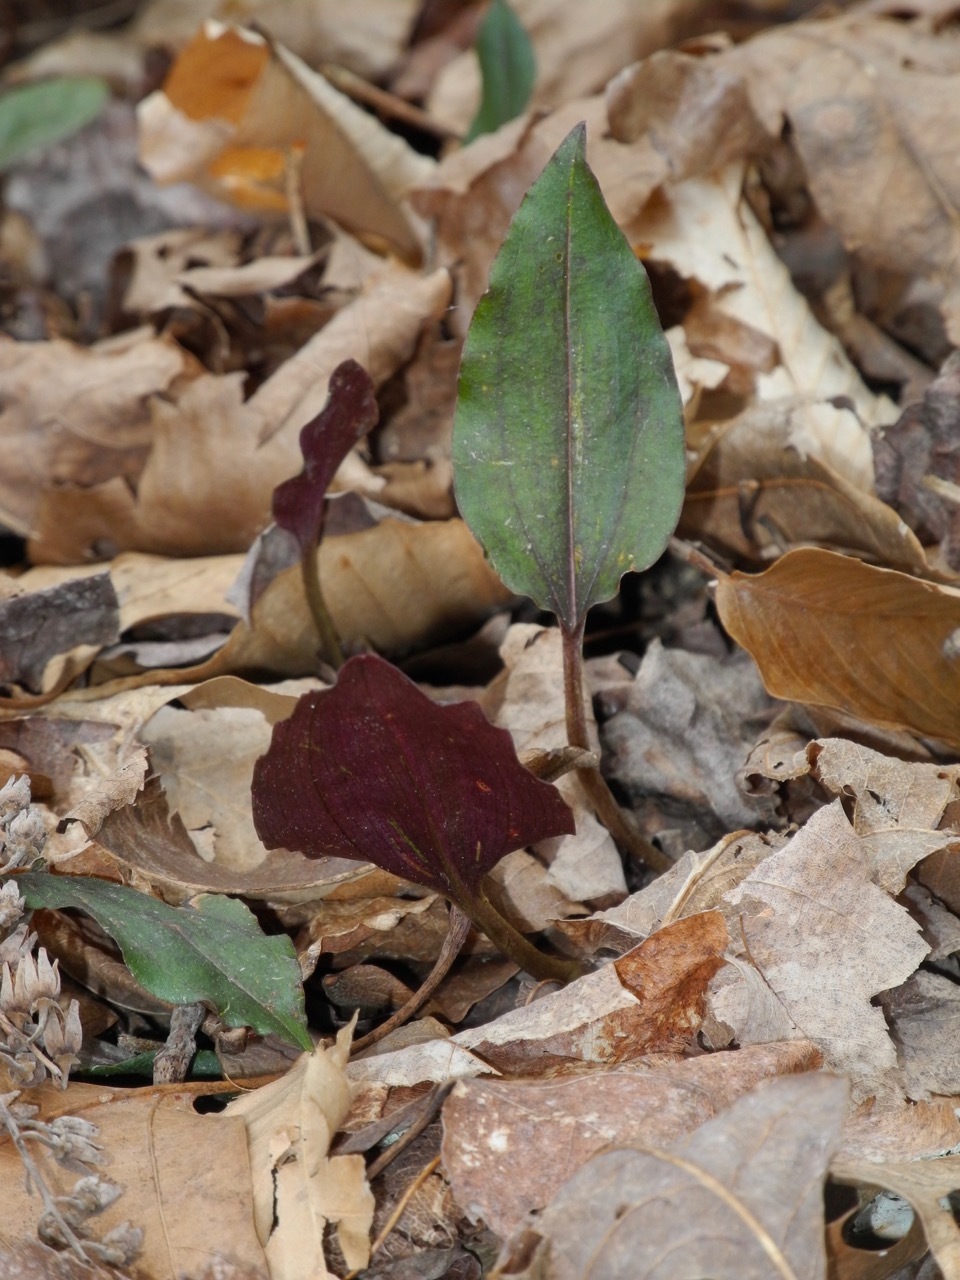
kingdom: Plantae
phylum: Tracheophyta
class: Liliopsida
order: Asparagales
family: Orchidaceae
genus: Tipularia
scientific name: Tipularia discolor
